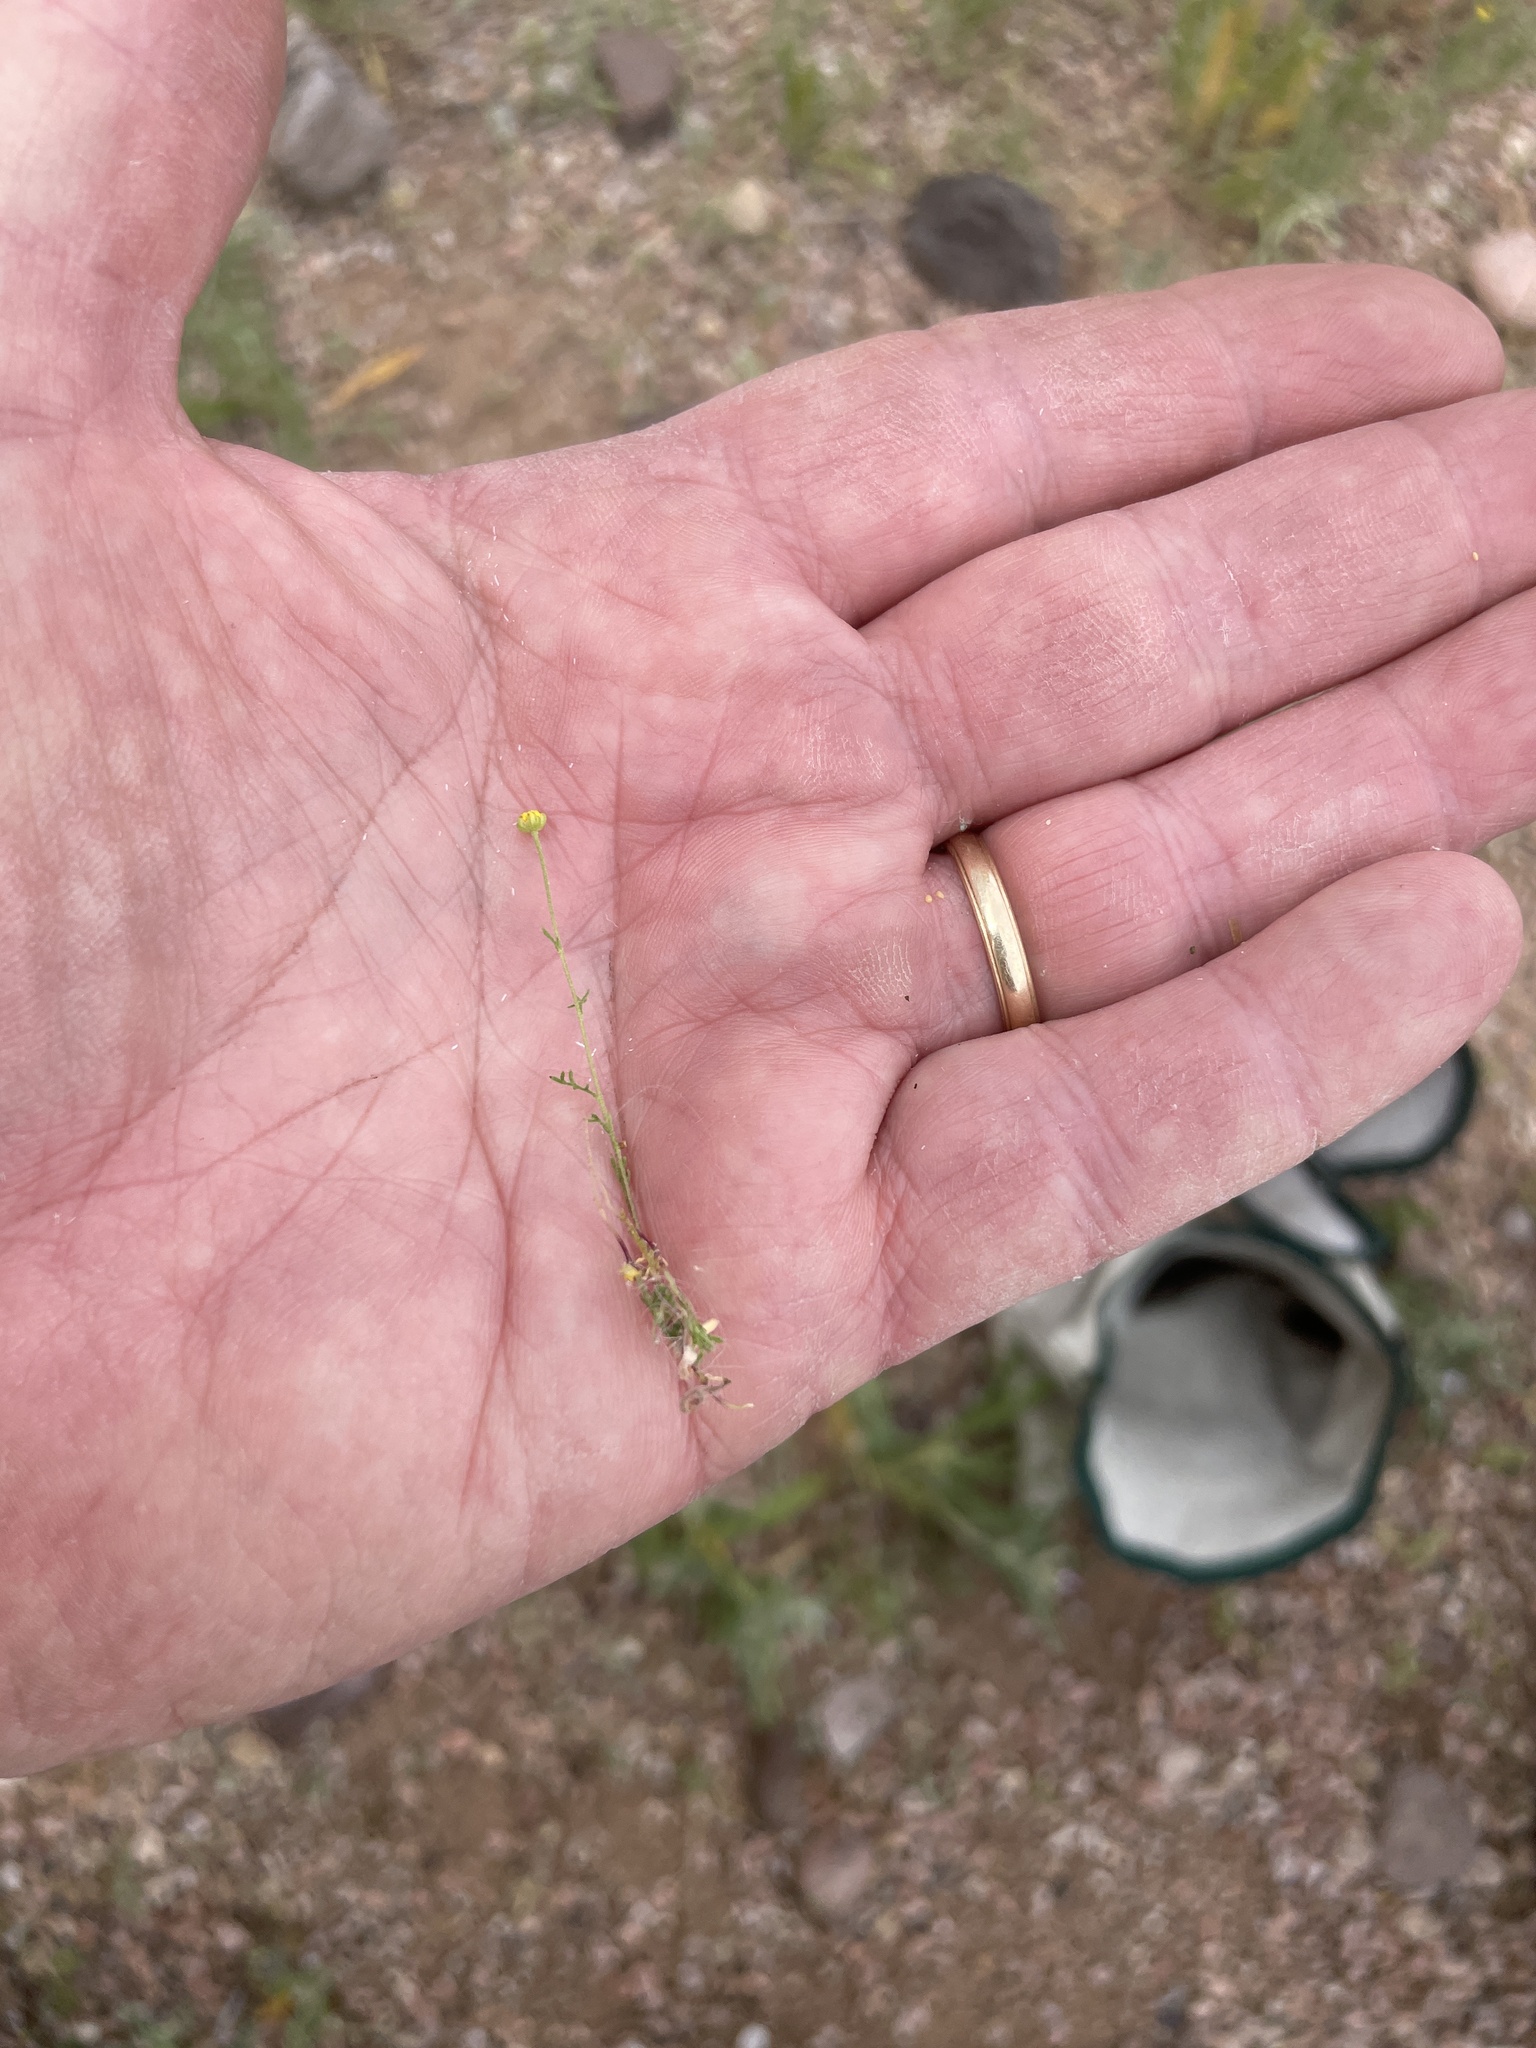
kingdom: Plantae
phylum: Tracheophyta
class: Magnoliopsida
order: Asterales
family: Asteraceae
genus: Oncosiphon
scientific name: Oncosiphon pilulifer
